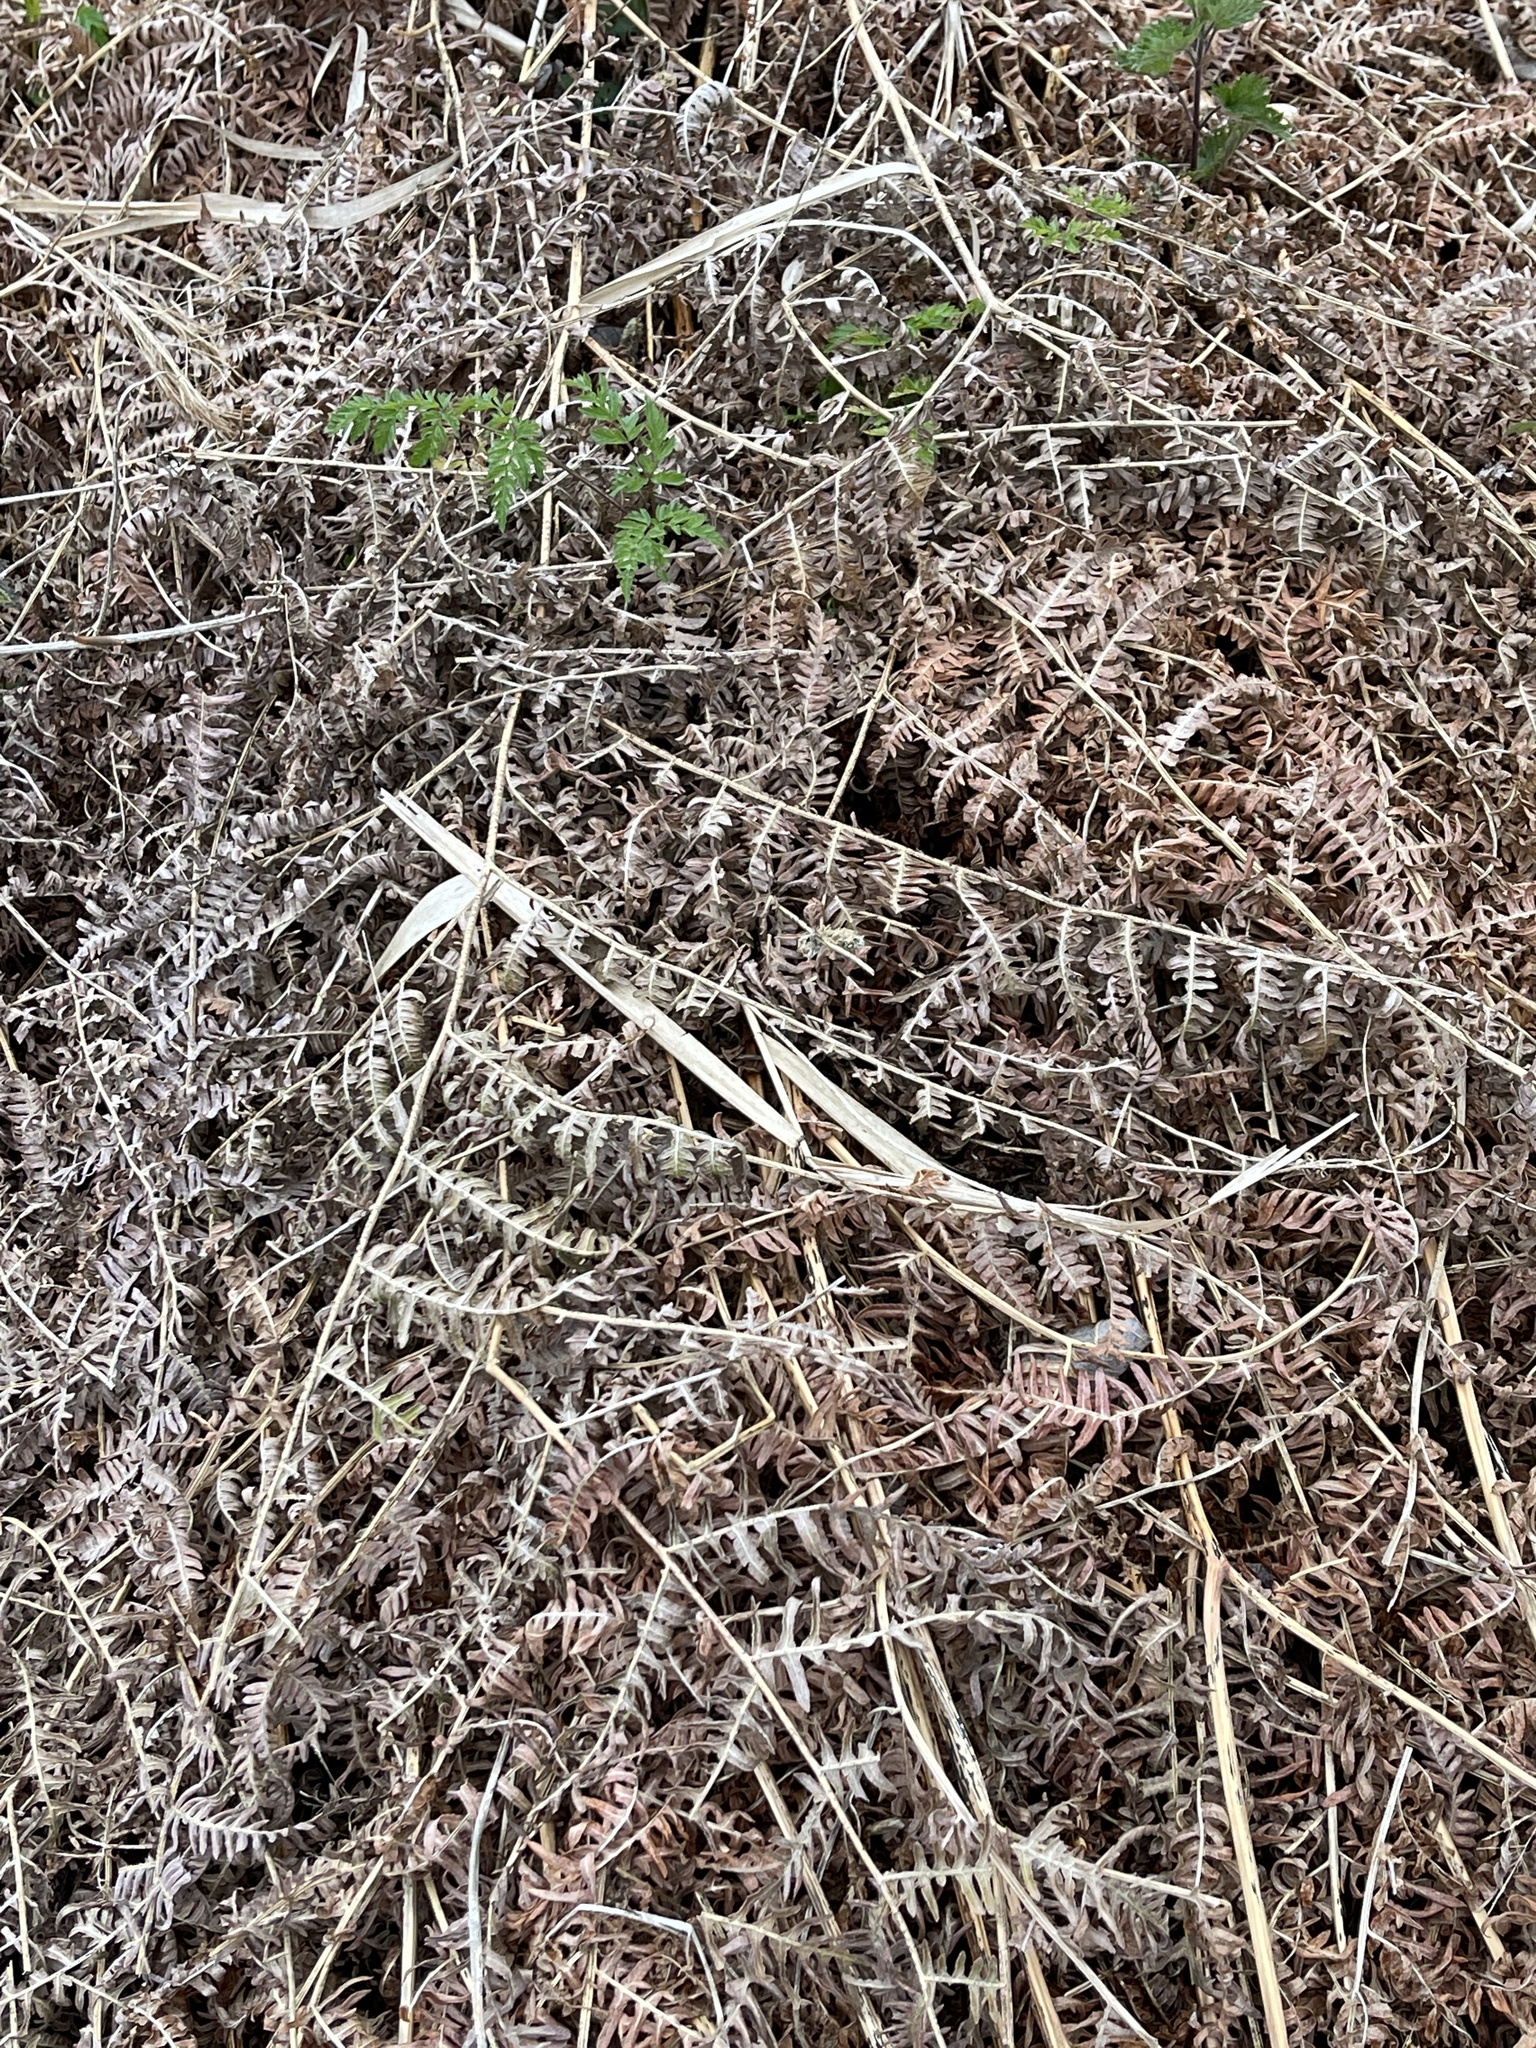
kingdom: Plantae
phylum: Tracheophyta
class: Polypodiopsida
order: Polypodiales
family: Dennstaedtiaceae
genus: Pteridium
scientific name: Pteridium aquilinum
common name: Bracken
